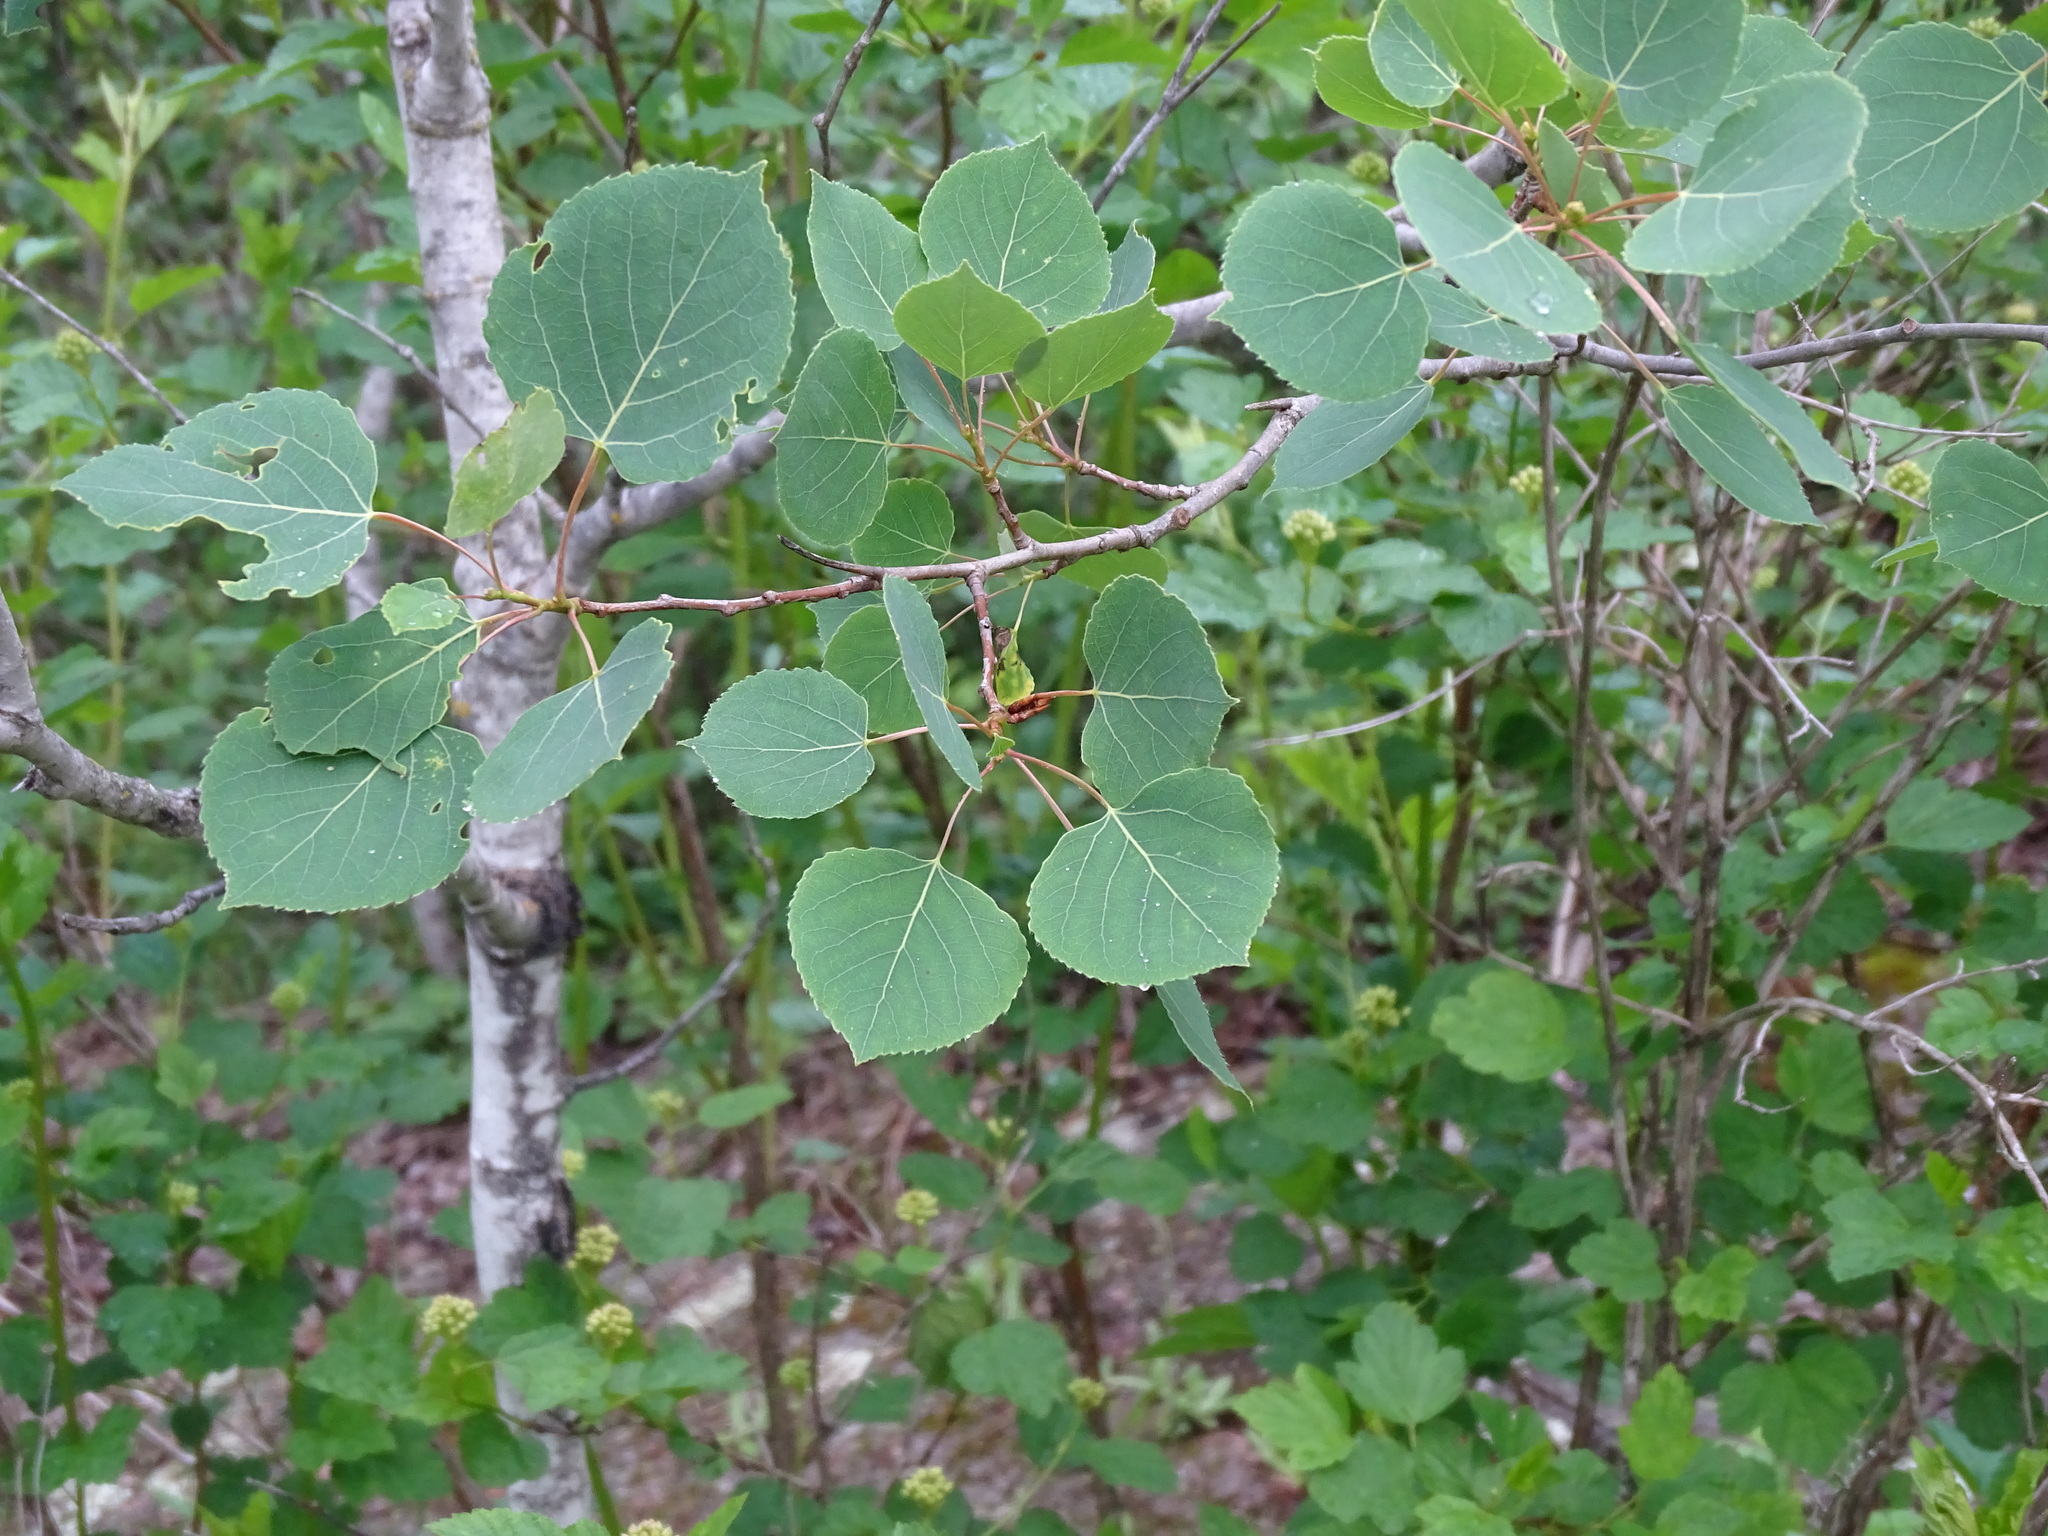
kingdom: Plantae
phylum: Tracheophyta
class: Magnoliopsida
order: Malpighiales
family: Salicaceae
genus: Populus
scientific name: Populus tremuloides
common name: Quaking aspen
